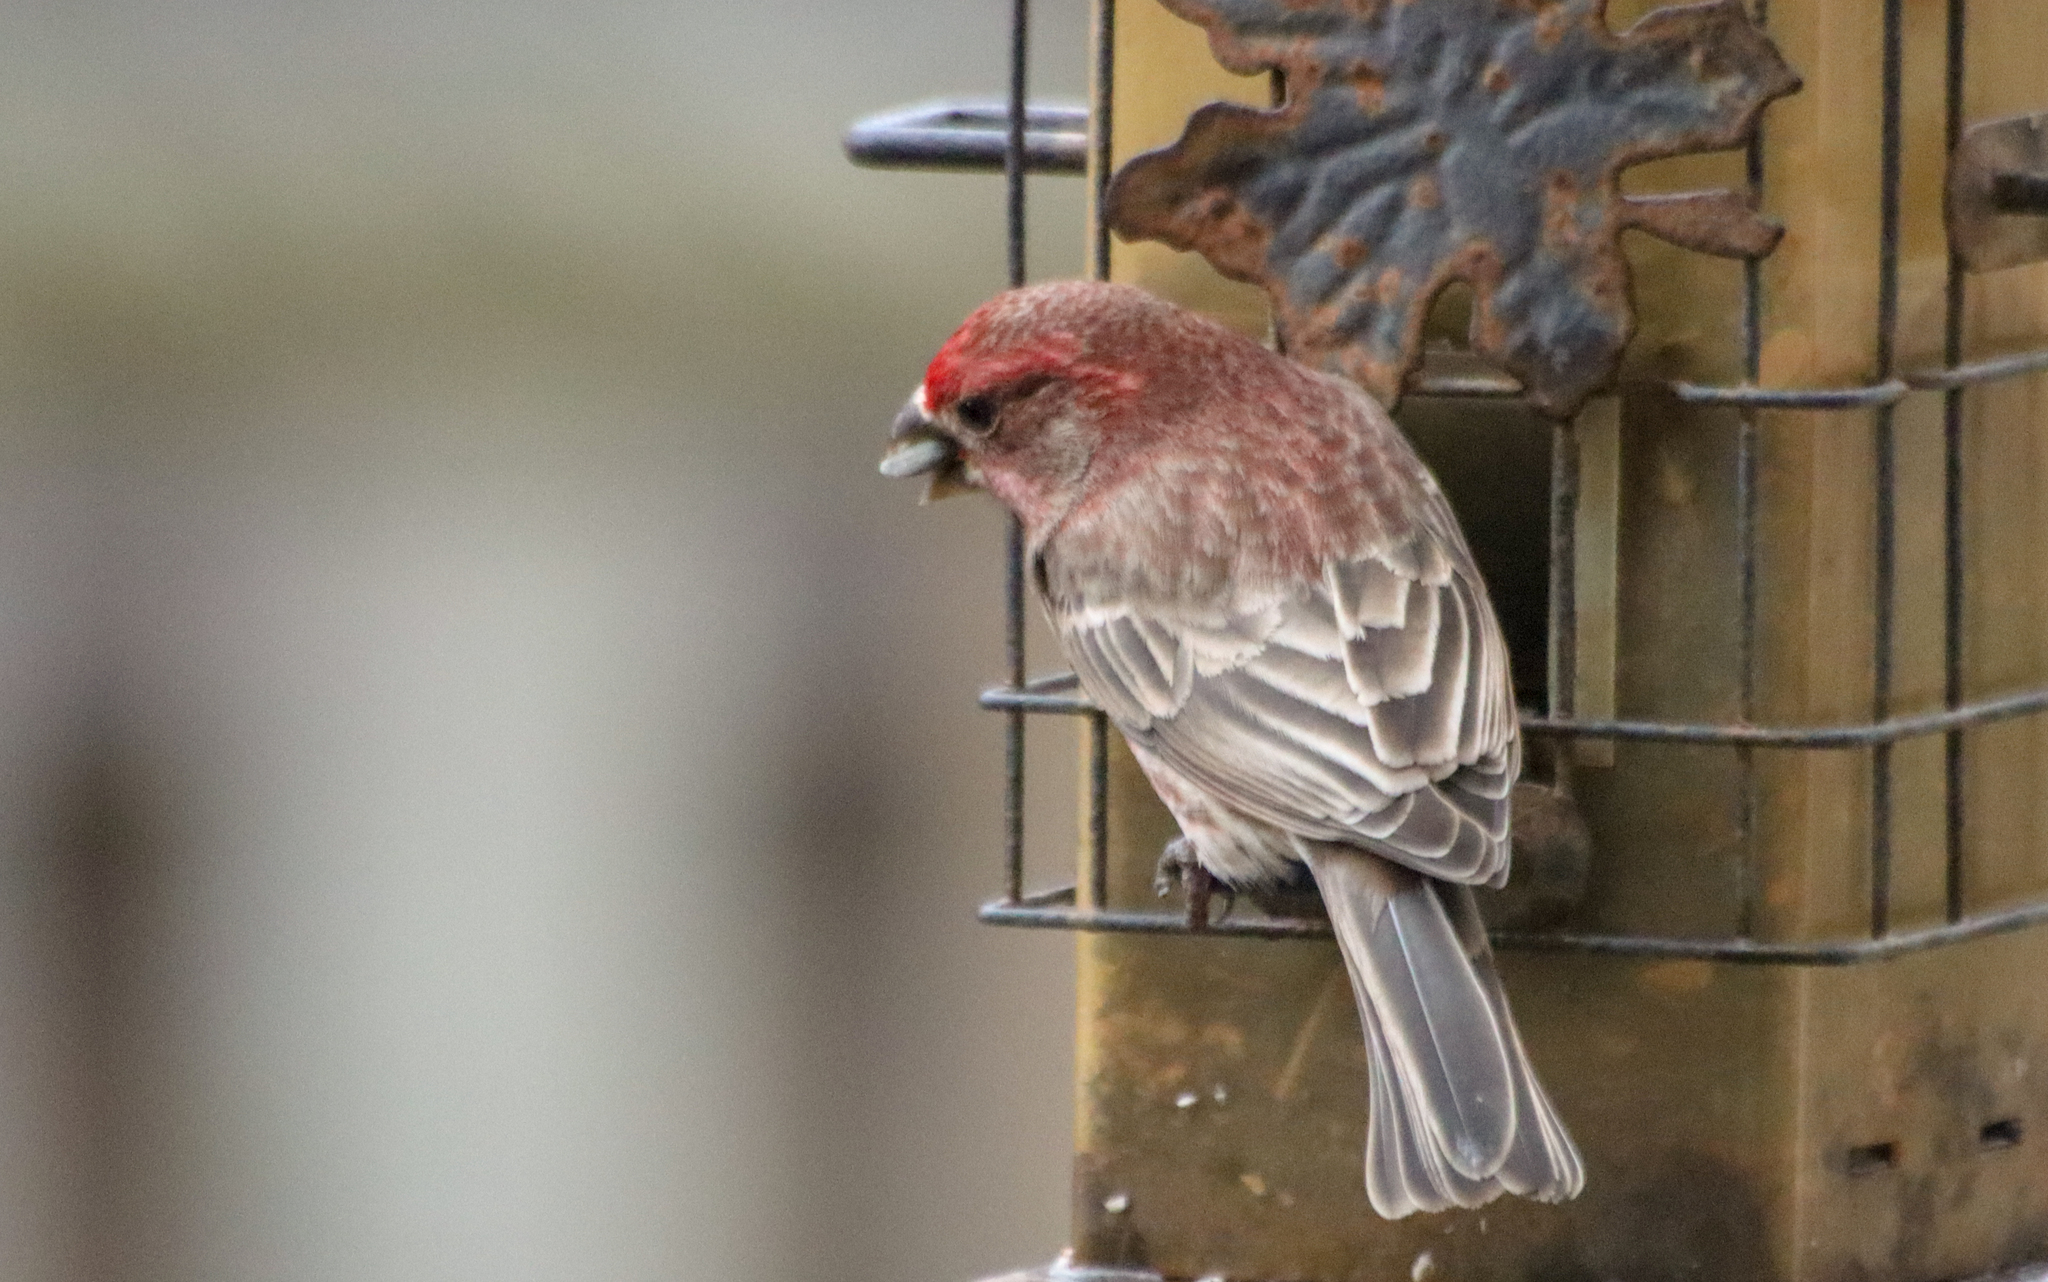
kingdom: Animalia
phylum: Chordata
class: Aves
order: Passeriformes
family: Fringillidae
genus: Haemorhous
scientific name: Haemorhous mexicanus
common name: House finch
